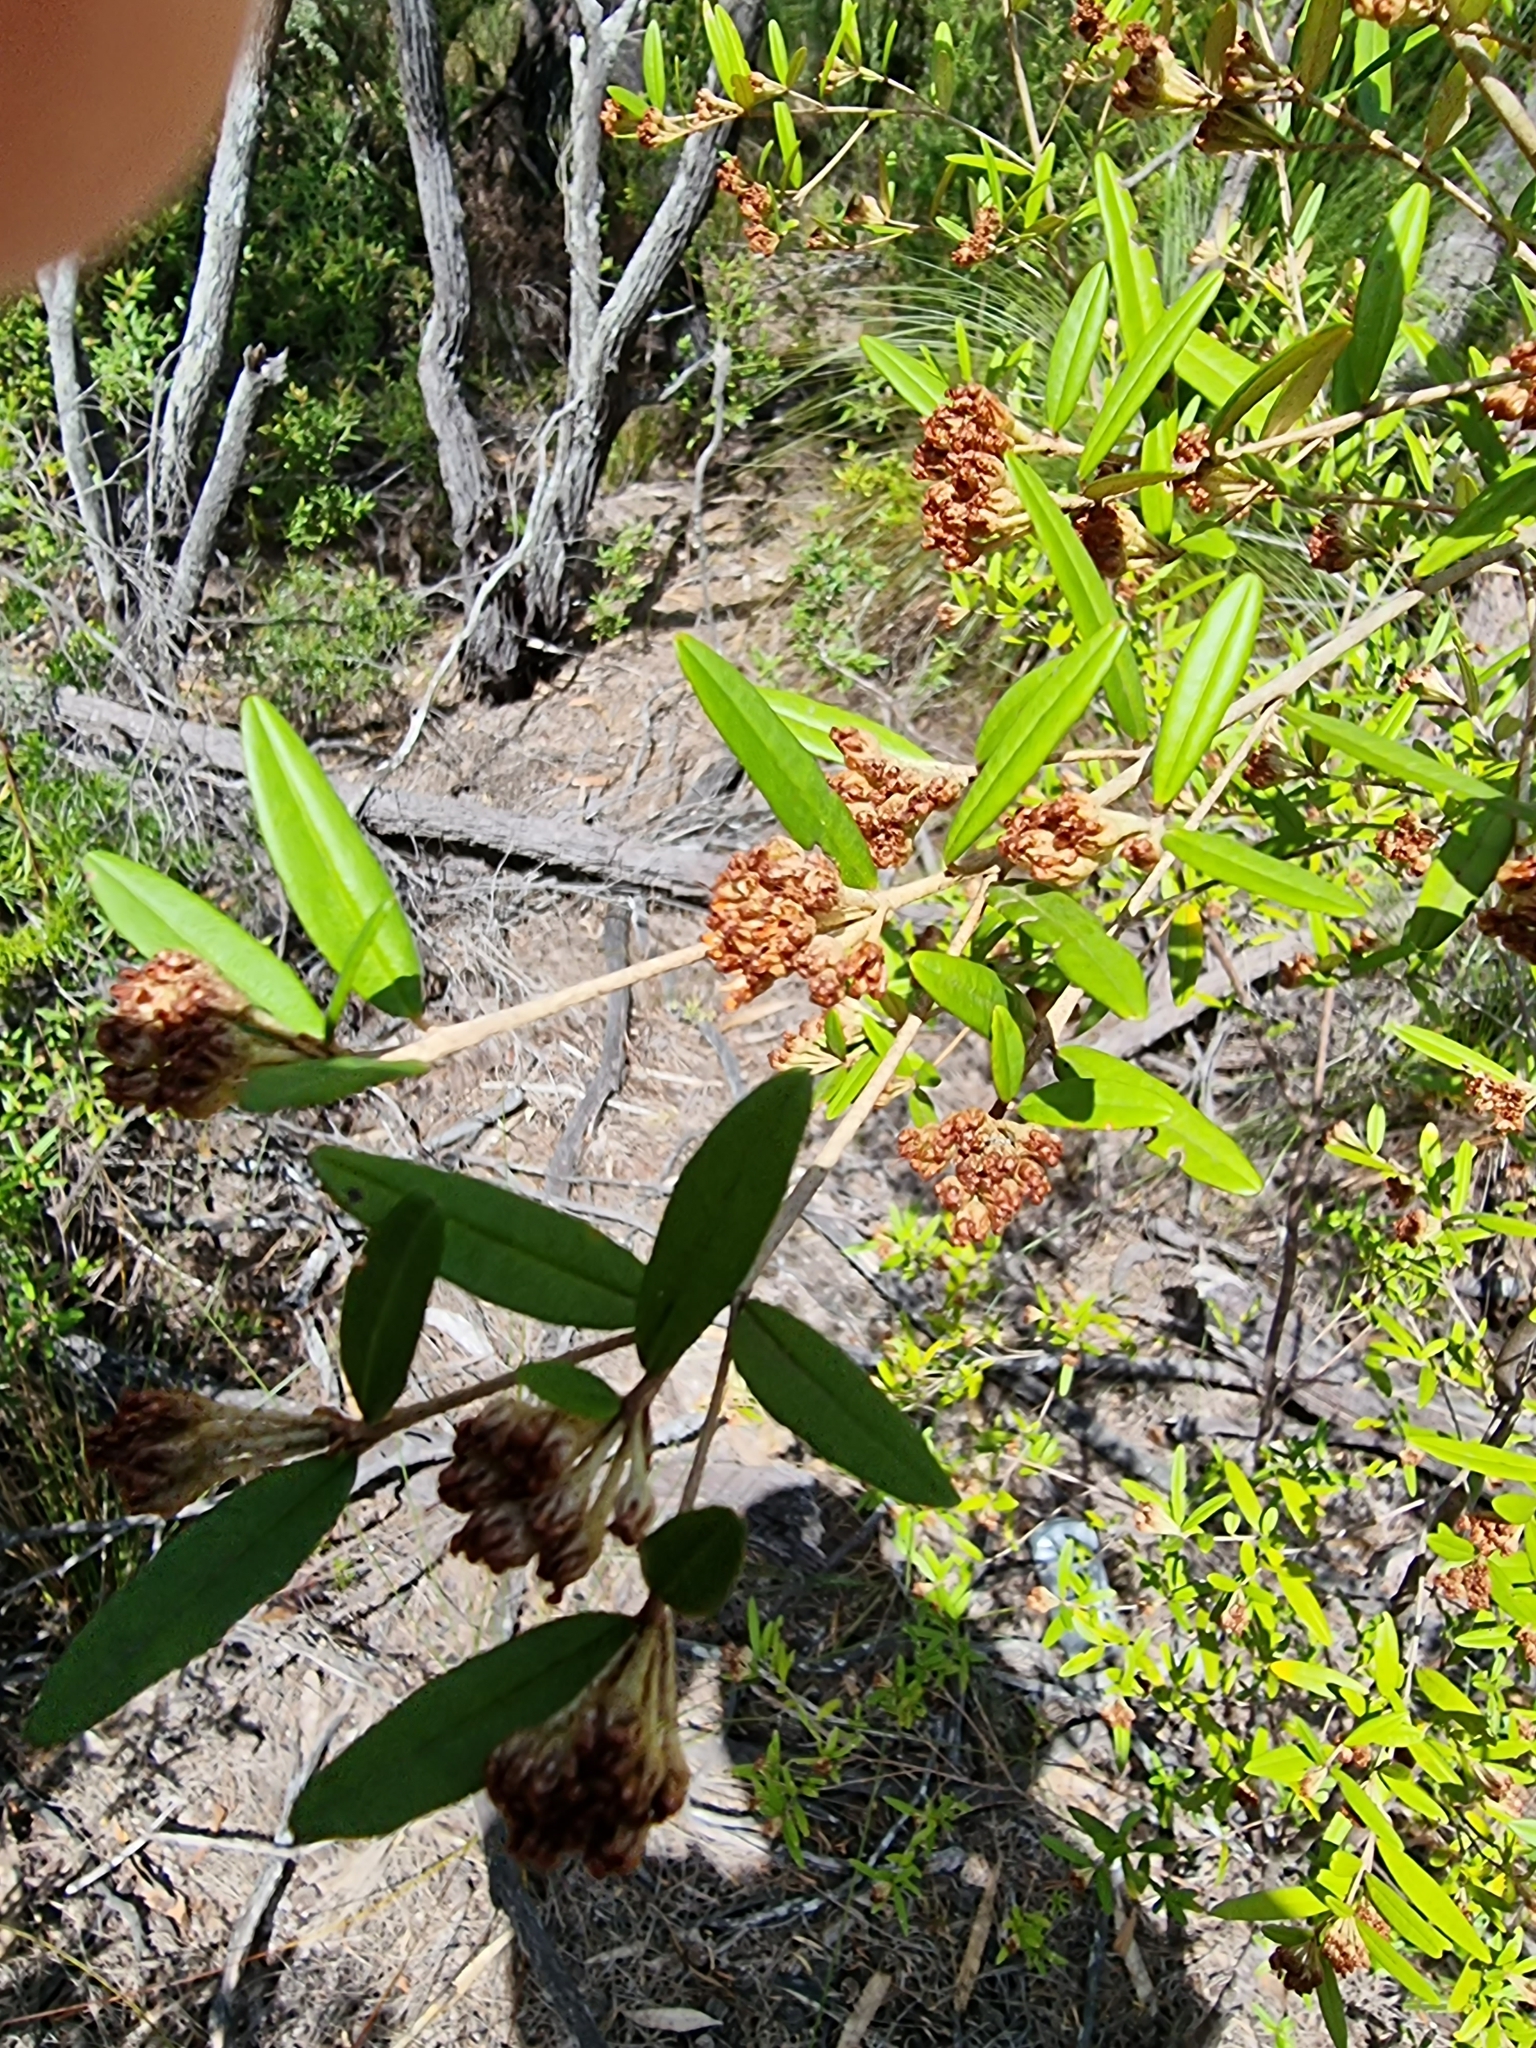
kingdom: Plantae
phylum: Tracheophyta
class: Magnoliopsida
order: Sapindales
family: Rutaceae
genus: Phebalium
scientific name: Phebalium woombye
